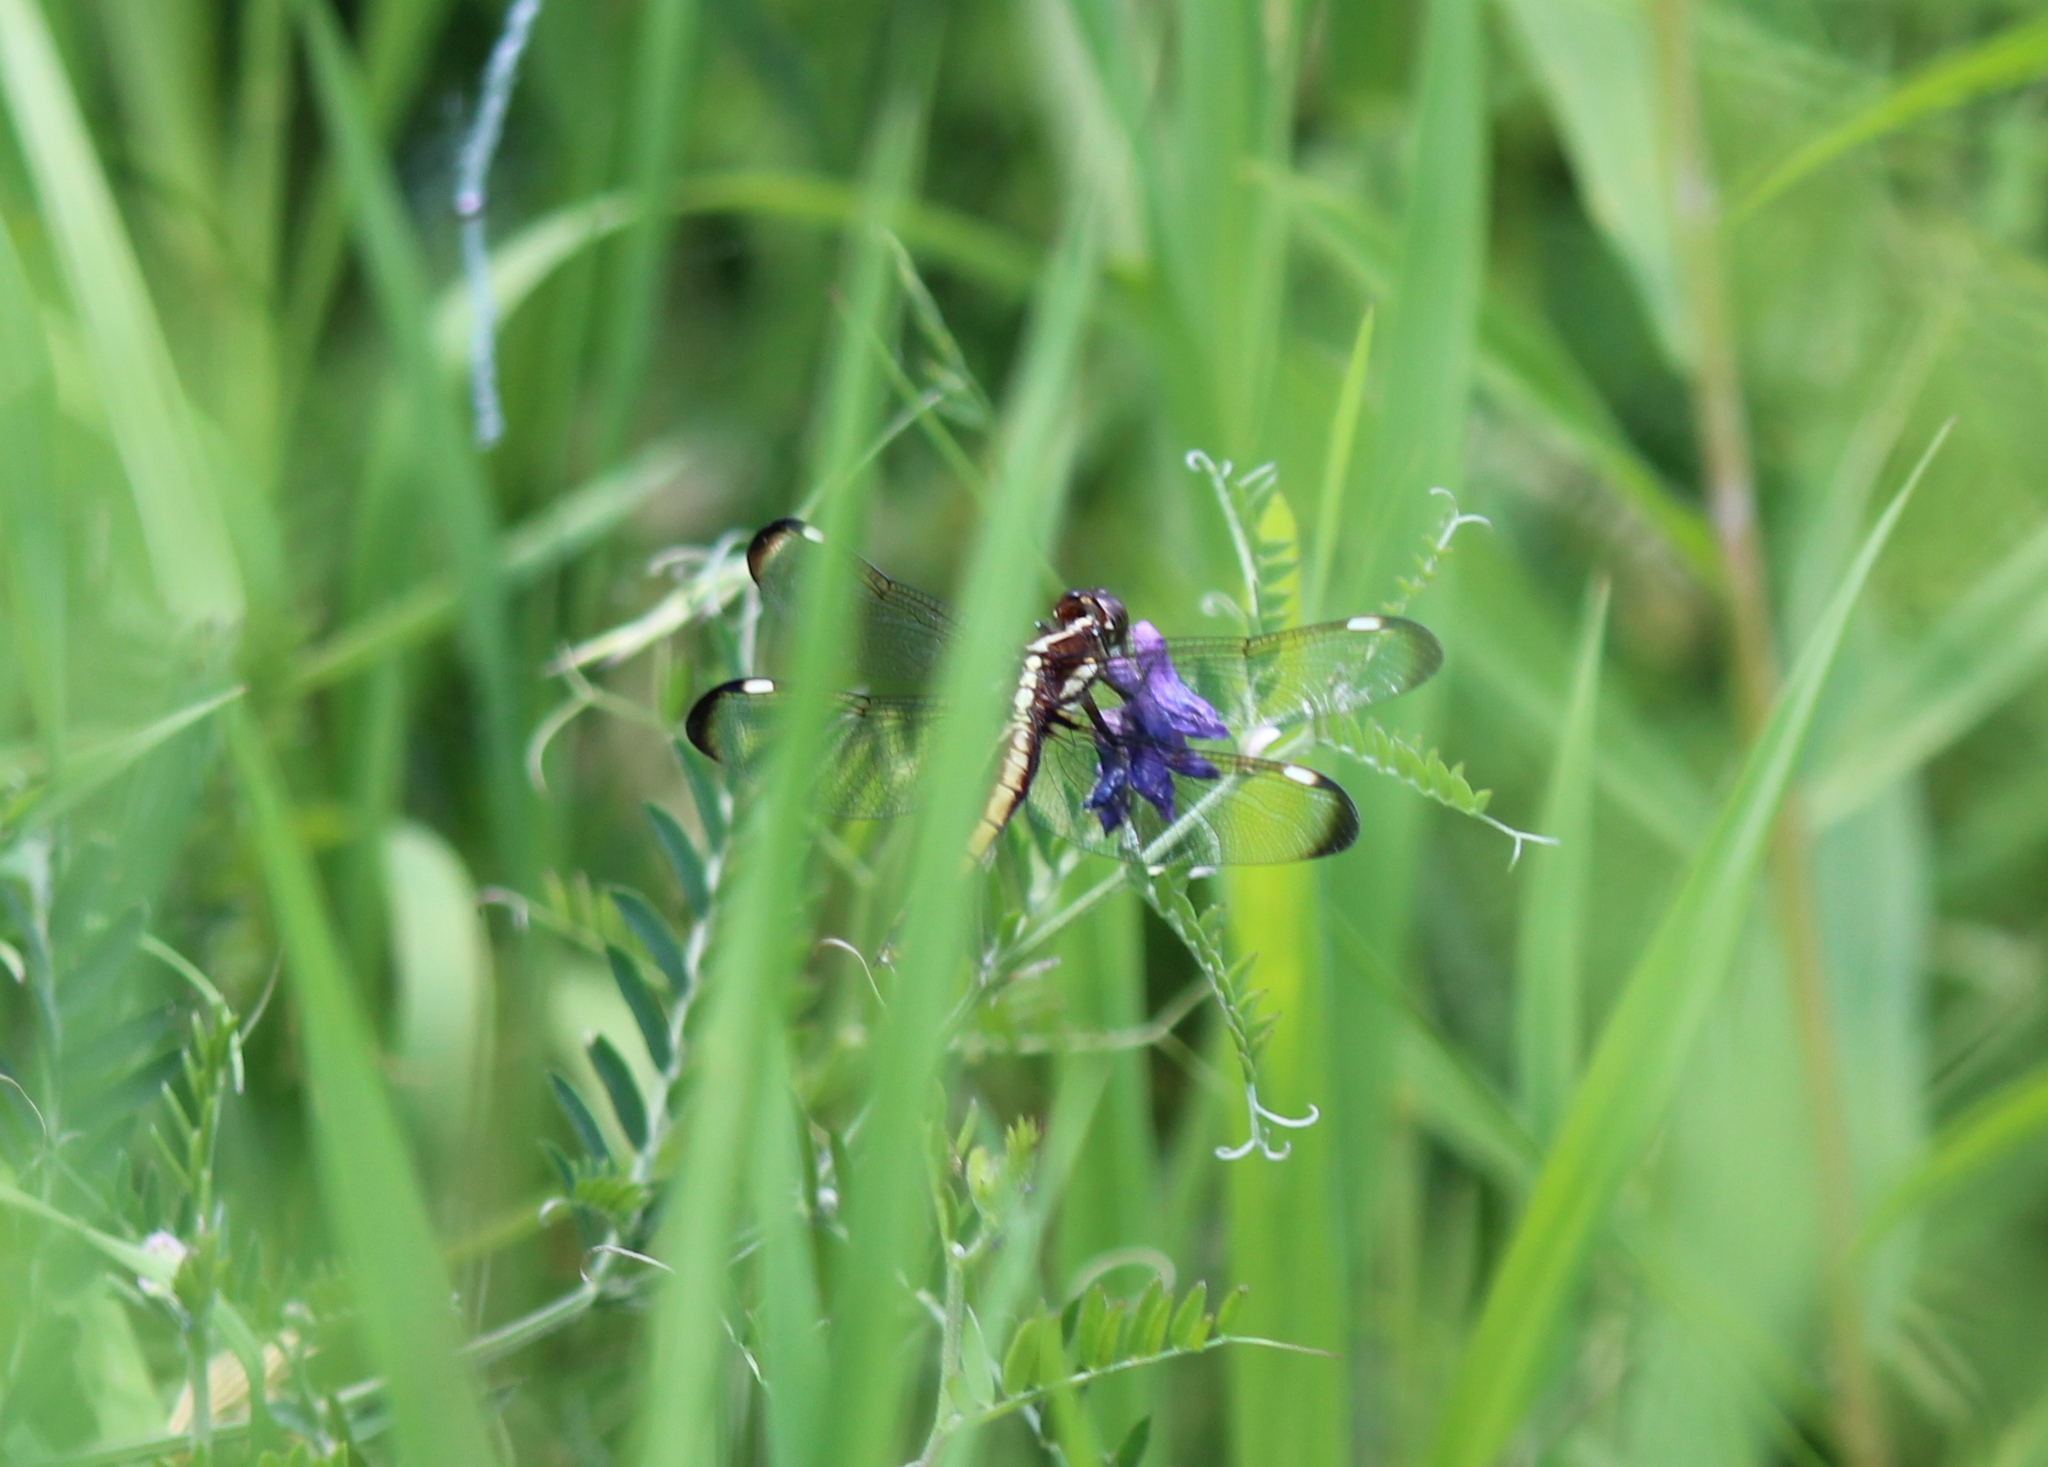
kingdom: Animalia
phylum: Arthropoda
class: Insecta
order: Odonata
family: Libellulidae
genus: Libellula
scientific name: Libellula cyanea
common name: Spangled skimmer
